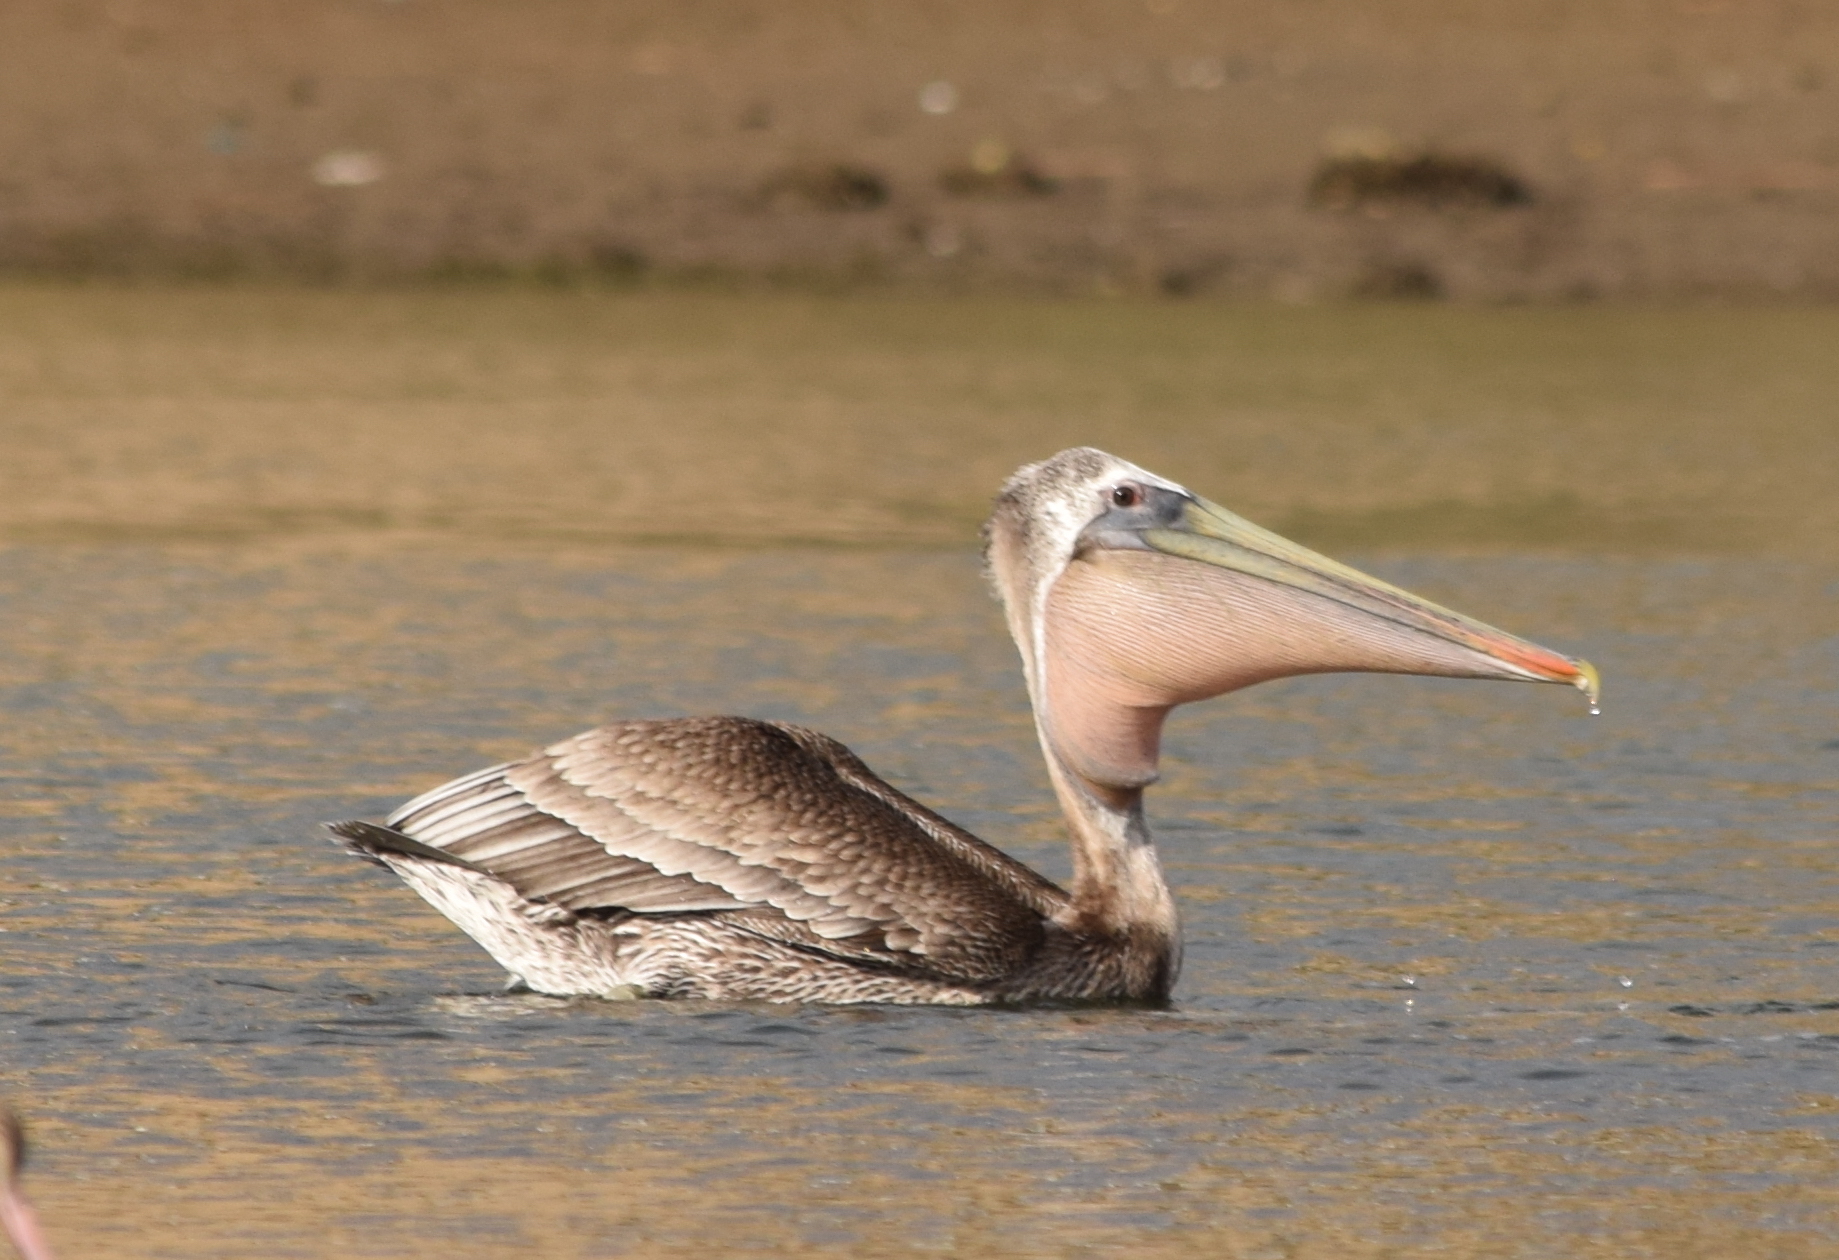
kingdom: Animalia
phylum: Chordata
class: Aves
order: Pelecaniformes
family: Pelecanidae
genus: Pelecanus
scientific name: Pelecanus occidentalis
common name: Brown pelican
